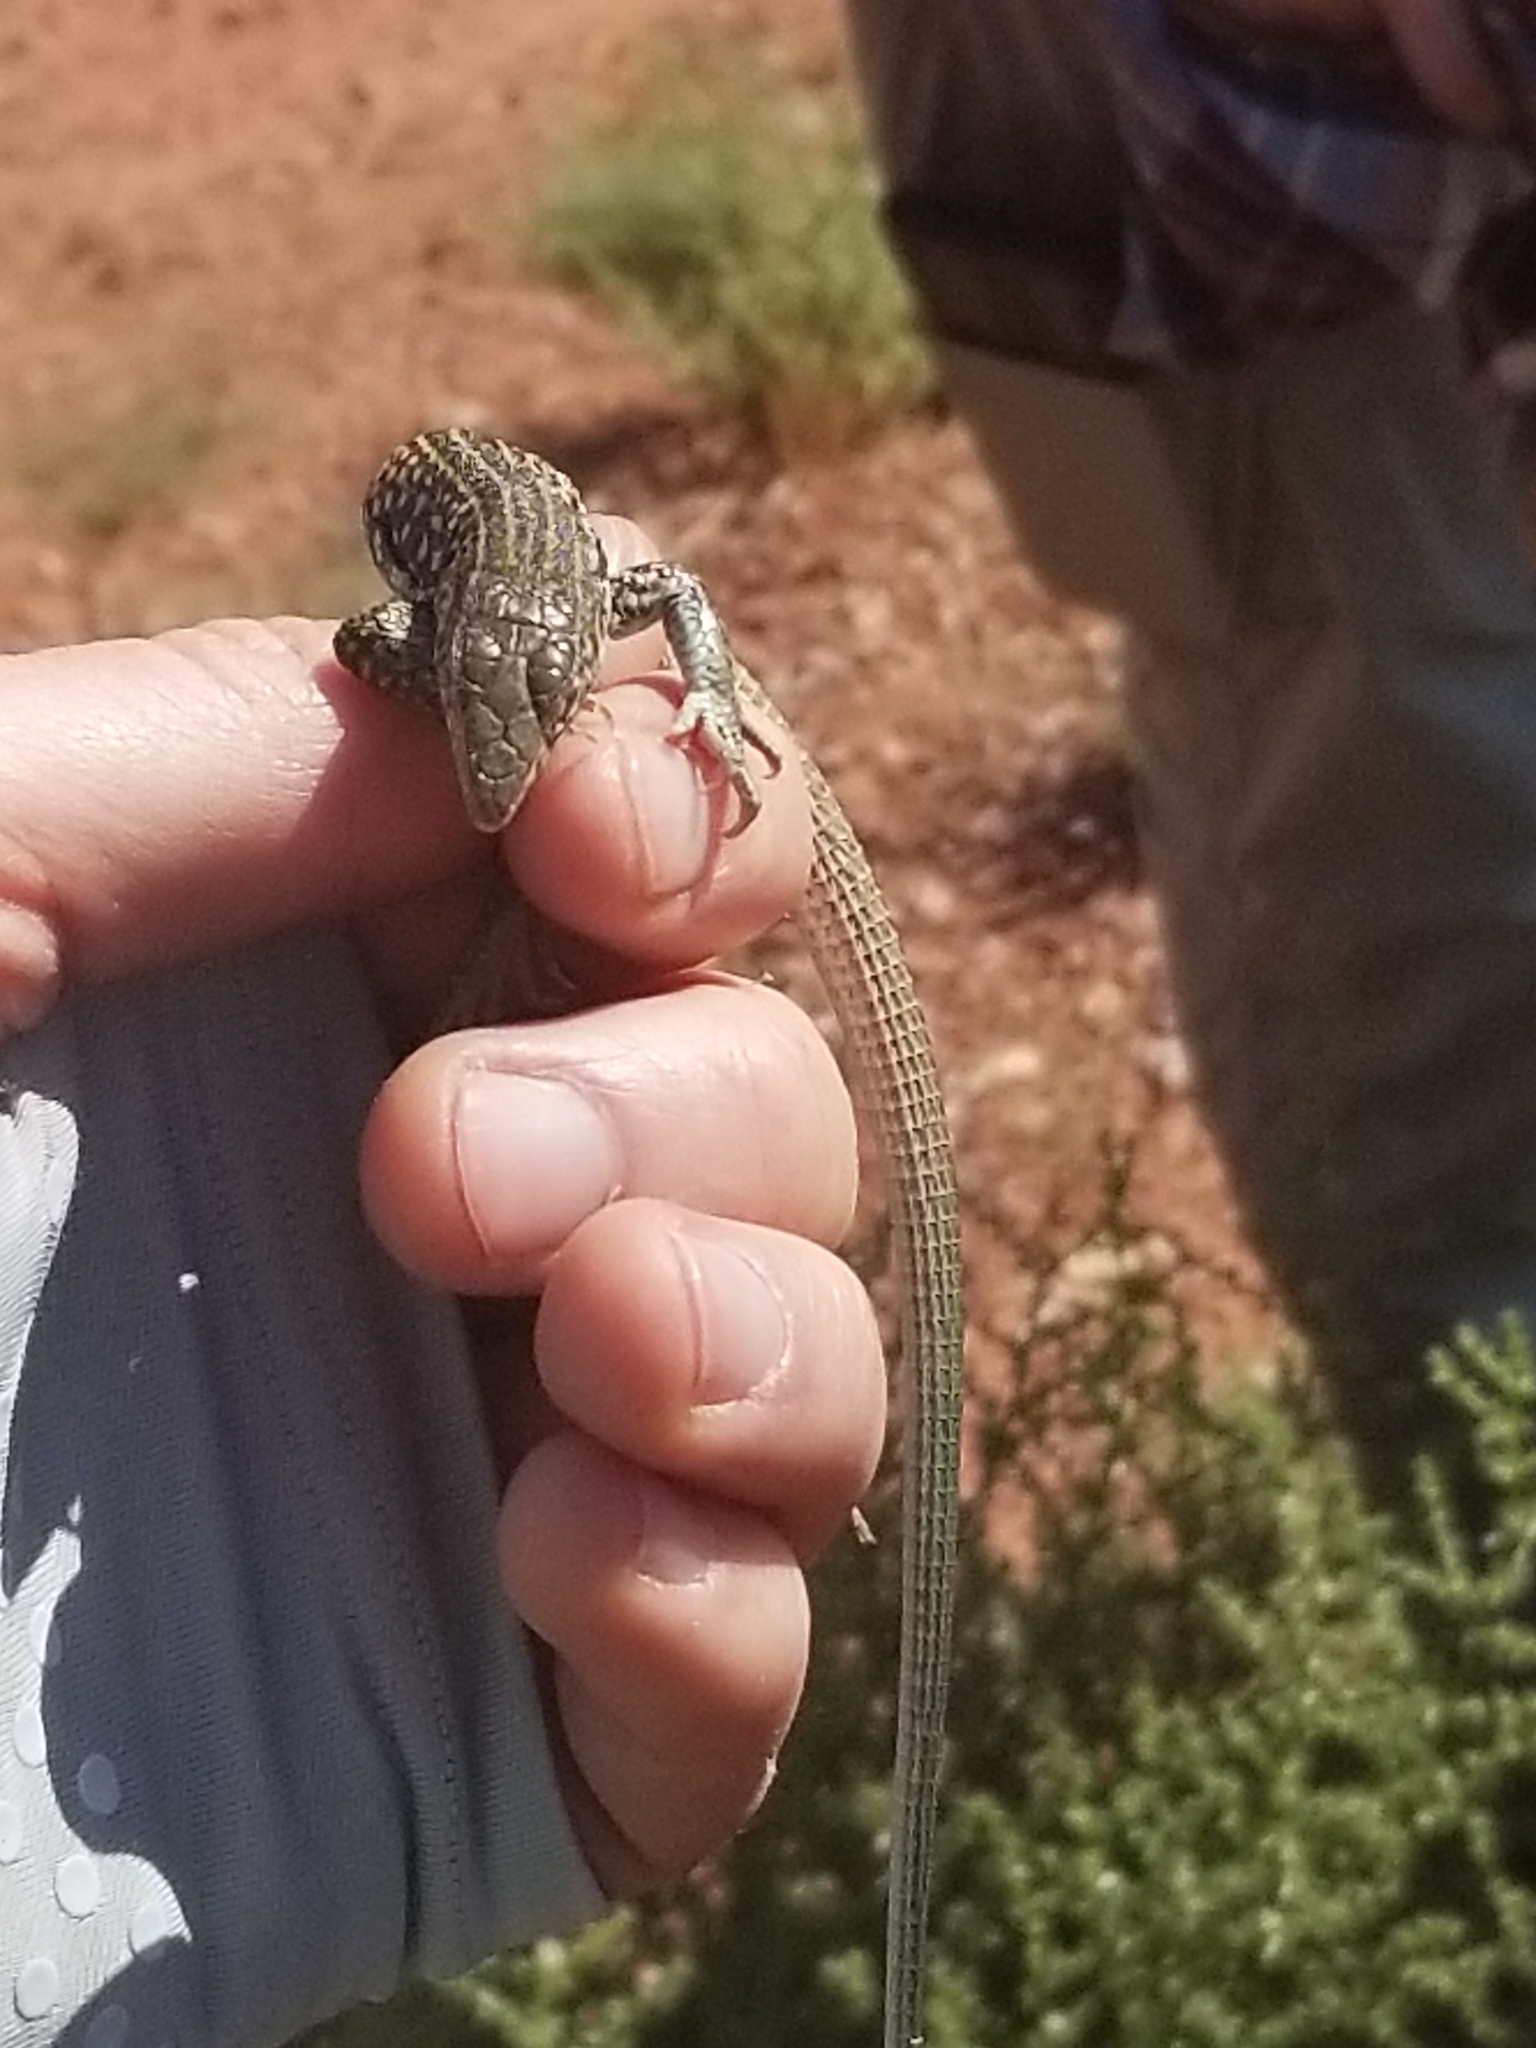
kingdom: Animalia
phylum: Chordata
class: Squamata
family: Teiidae
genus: Aspidoscelis
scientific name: Aspidoscelis tigris
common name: Tiger whiptail
